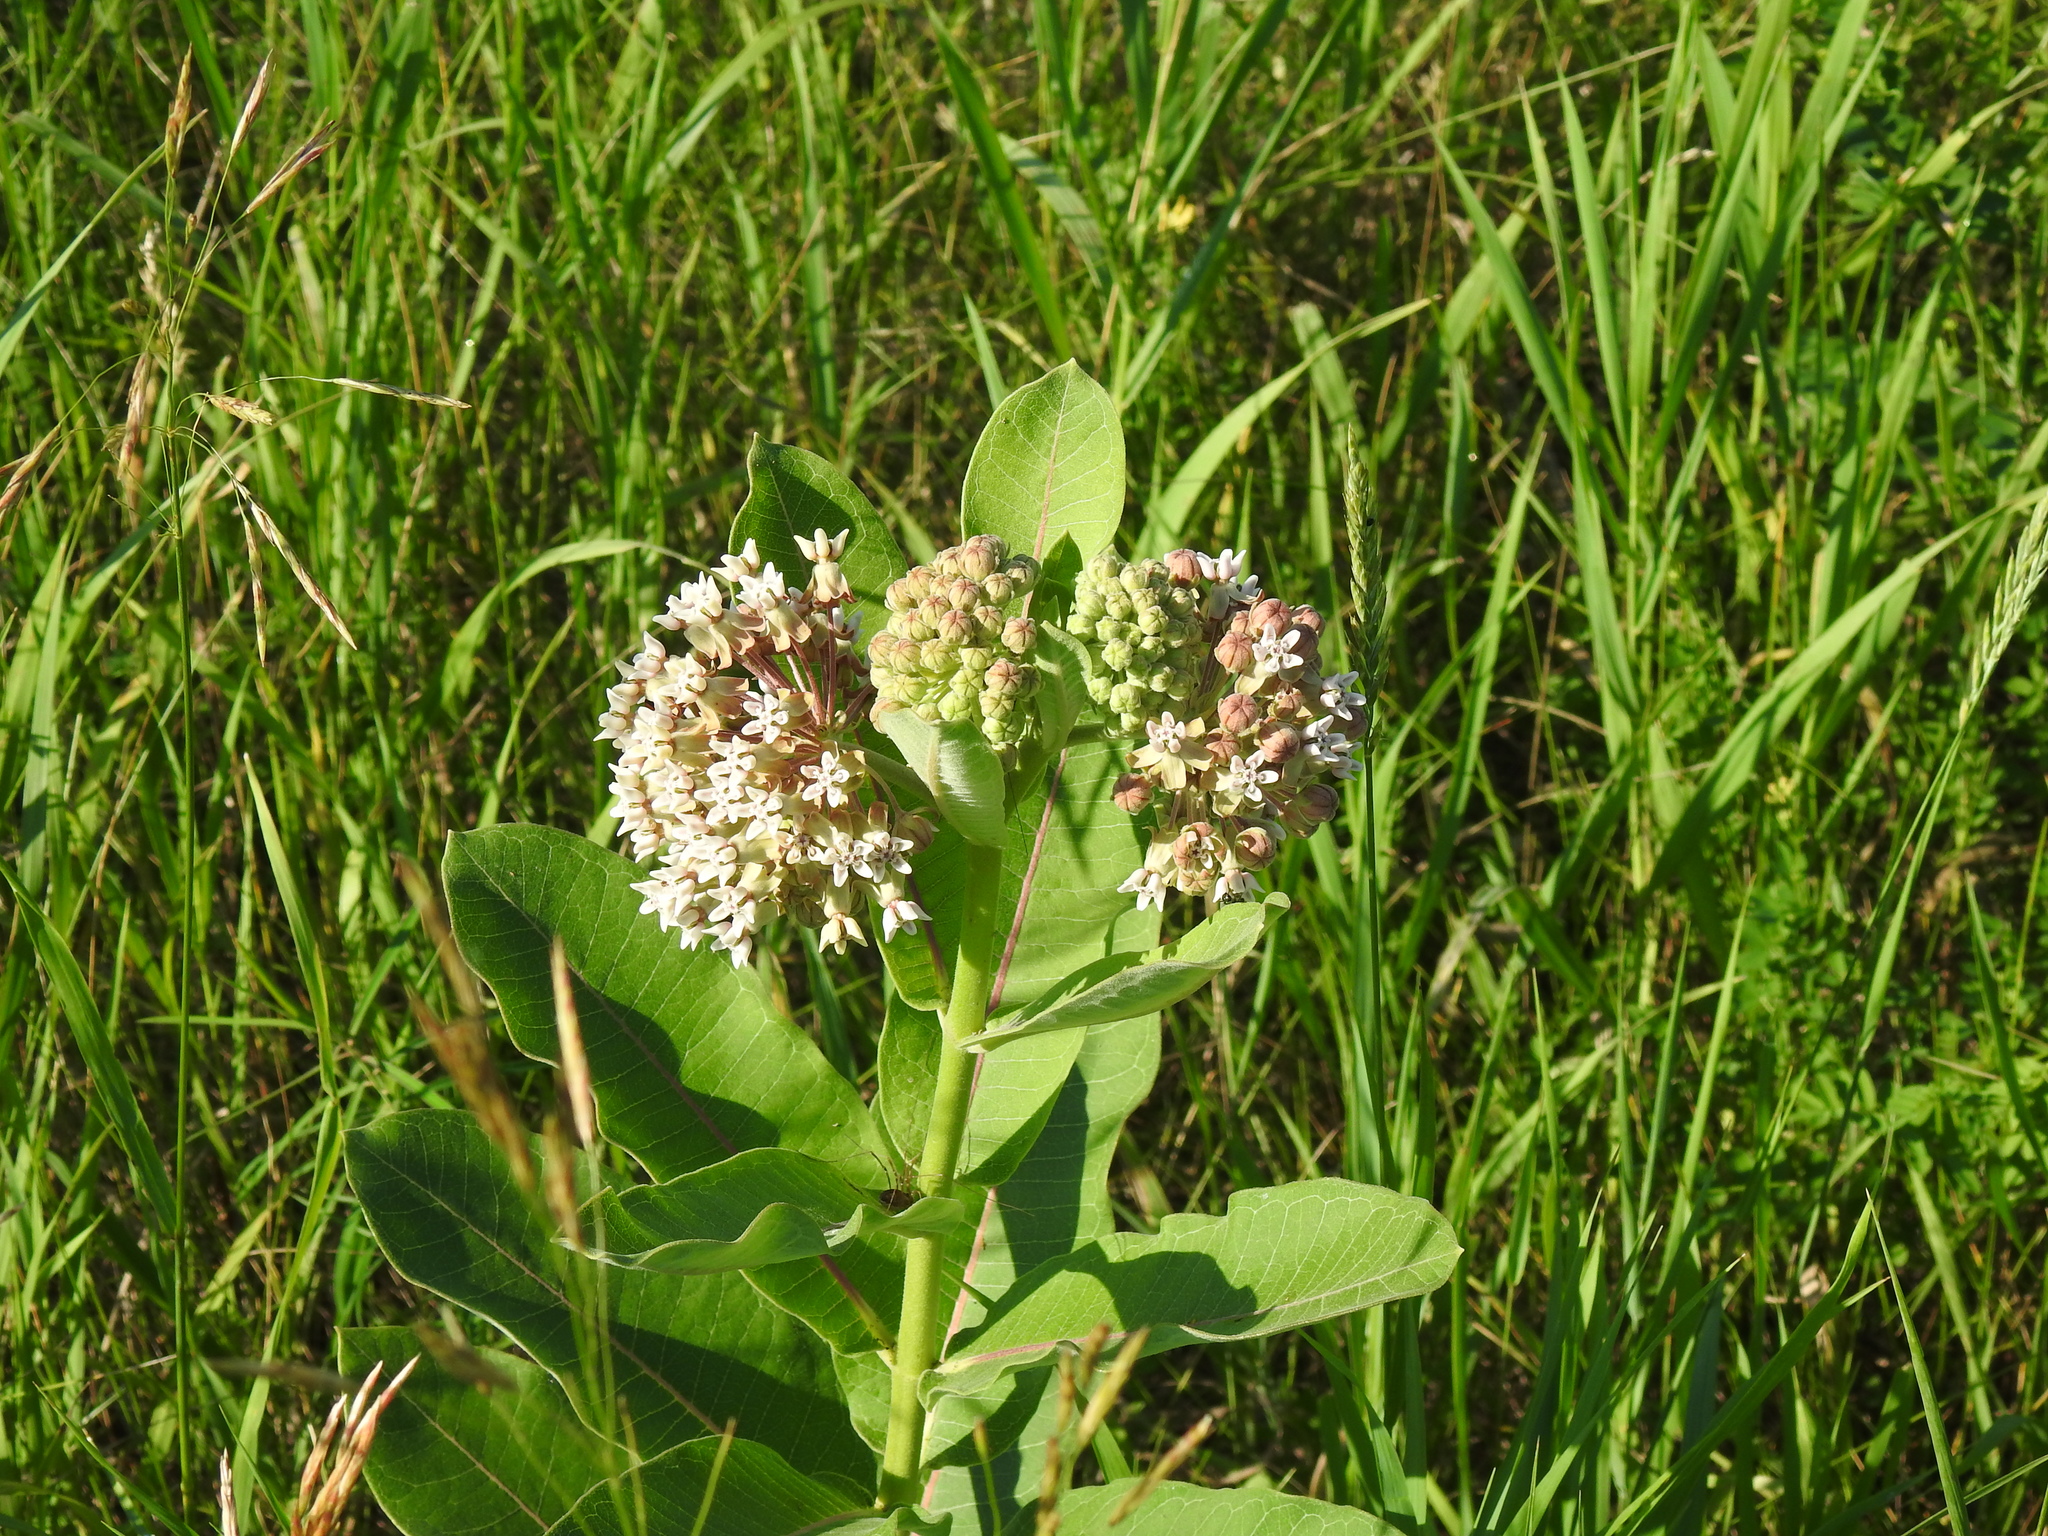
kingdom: Plantae
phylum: Tracheophyta
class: Magnoliopsida
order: Gentianales
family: Apocynaceae
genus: Asclepias
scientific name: Asclepias syriaca
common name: Common milkweed
